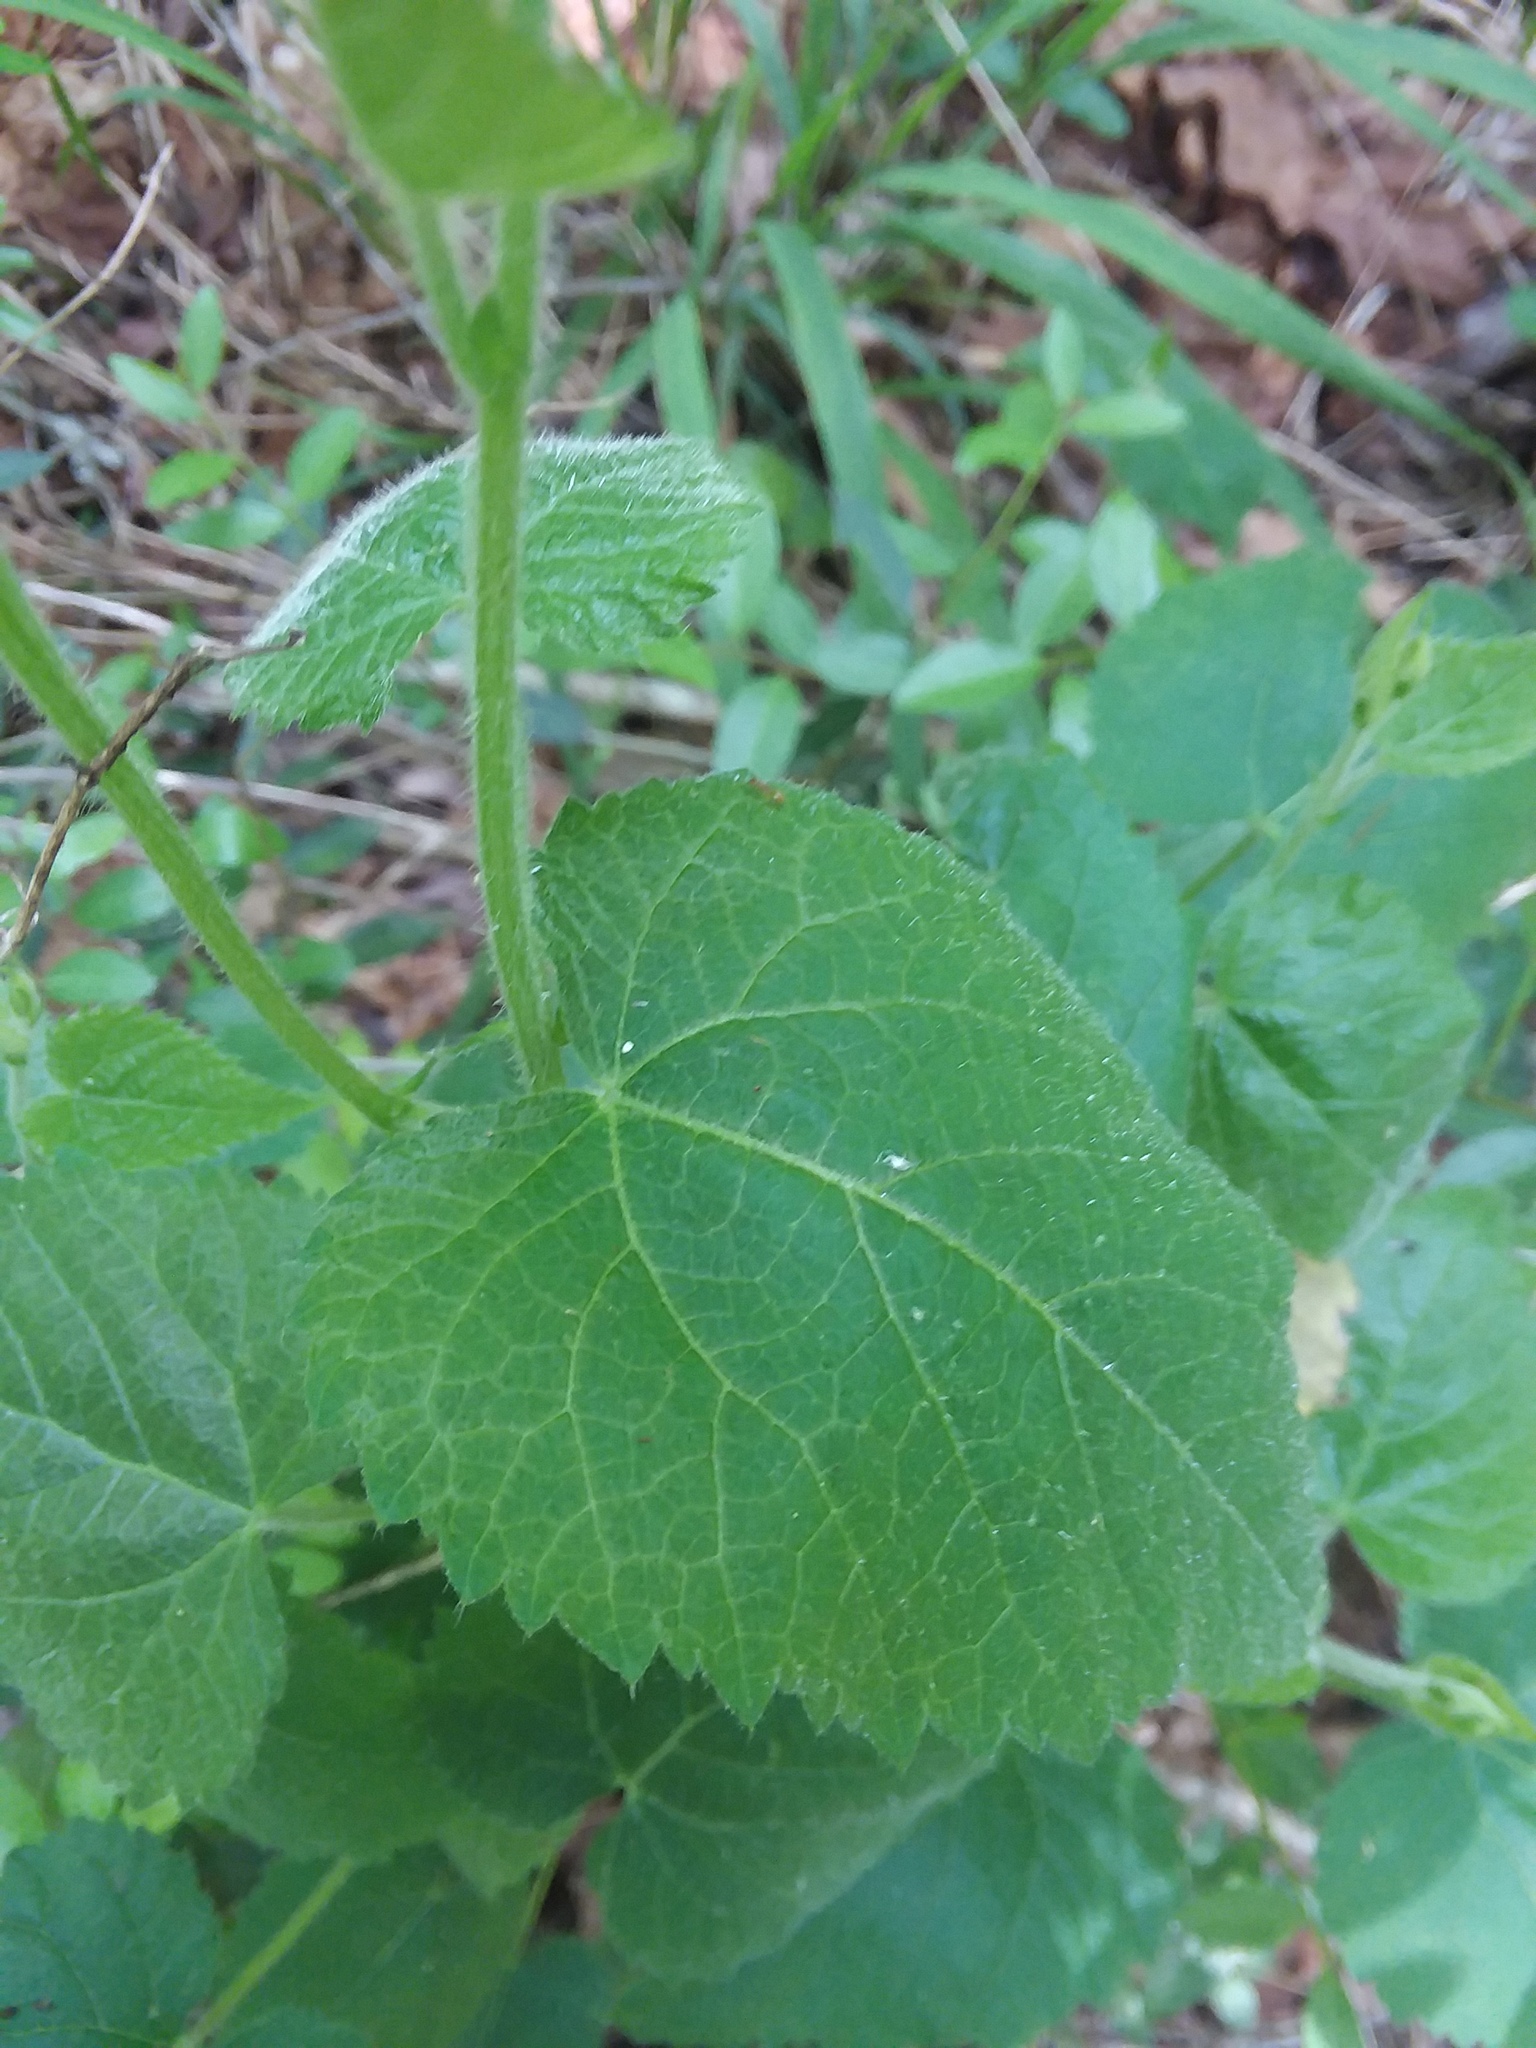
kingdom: Plantae
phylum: Tracheophyta
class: Magnoliopsida
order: Malpighiales
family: Euphorbiaceae
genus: Tragia
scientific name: Tragia cordata
